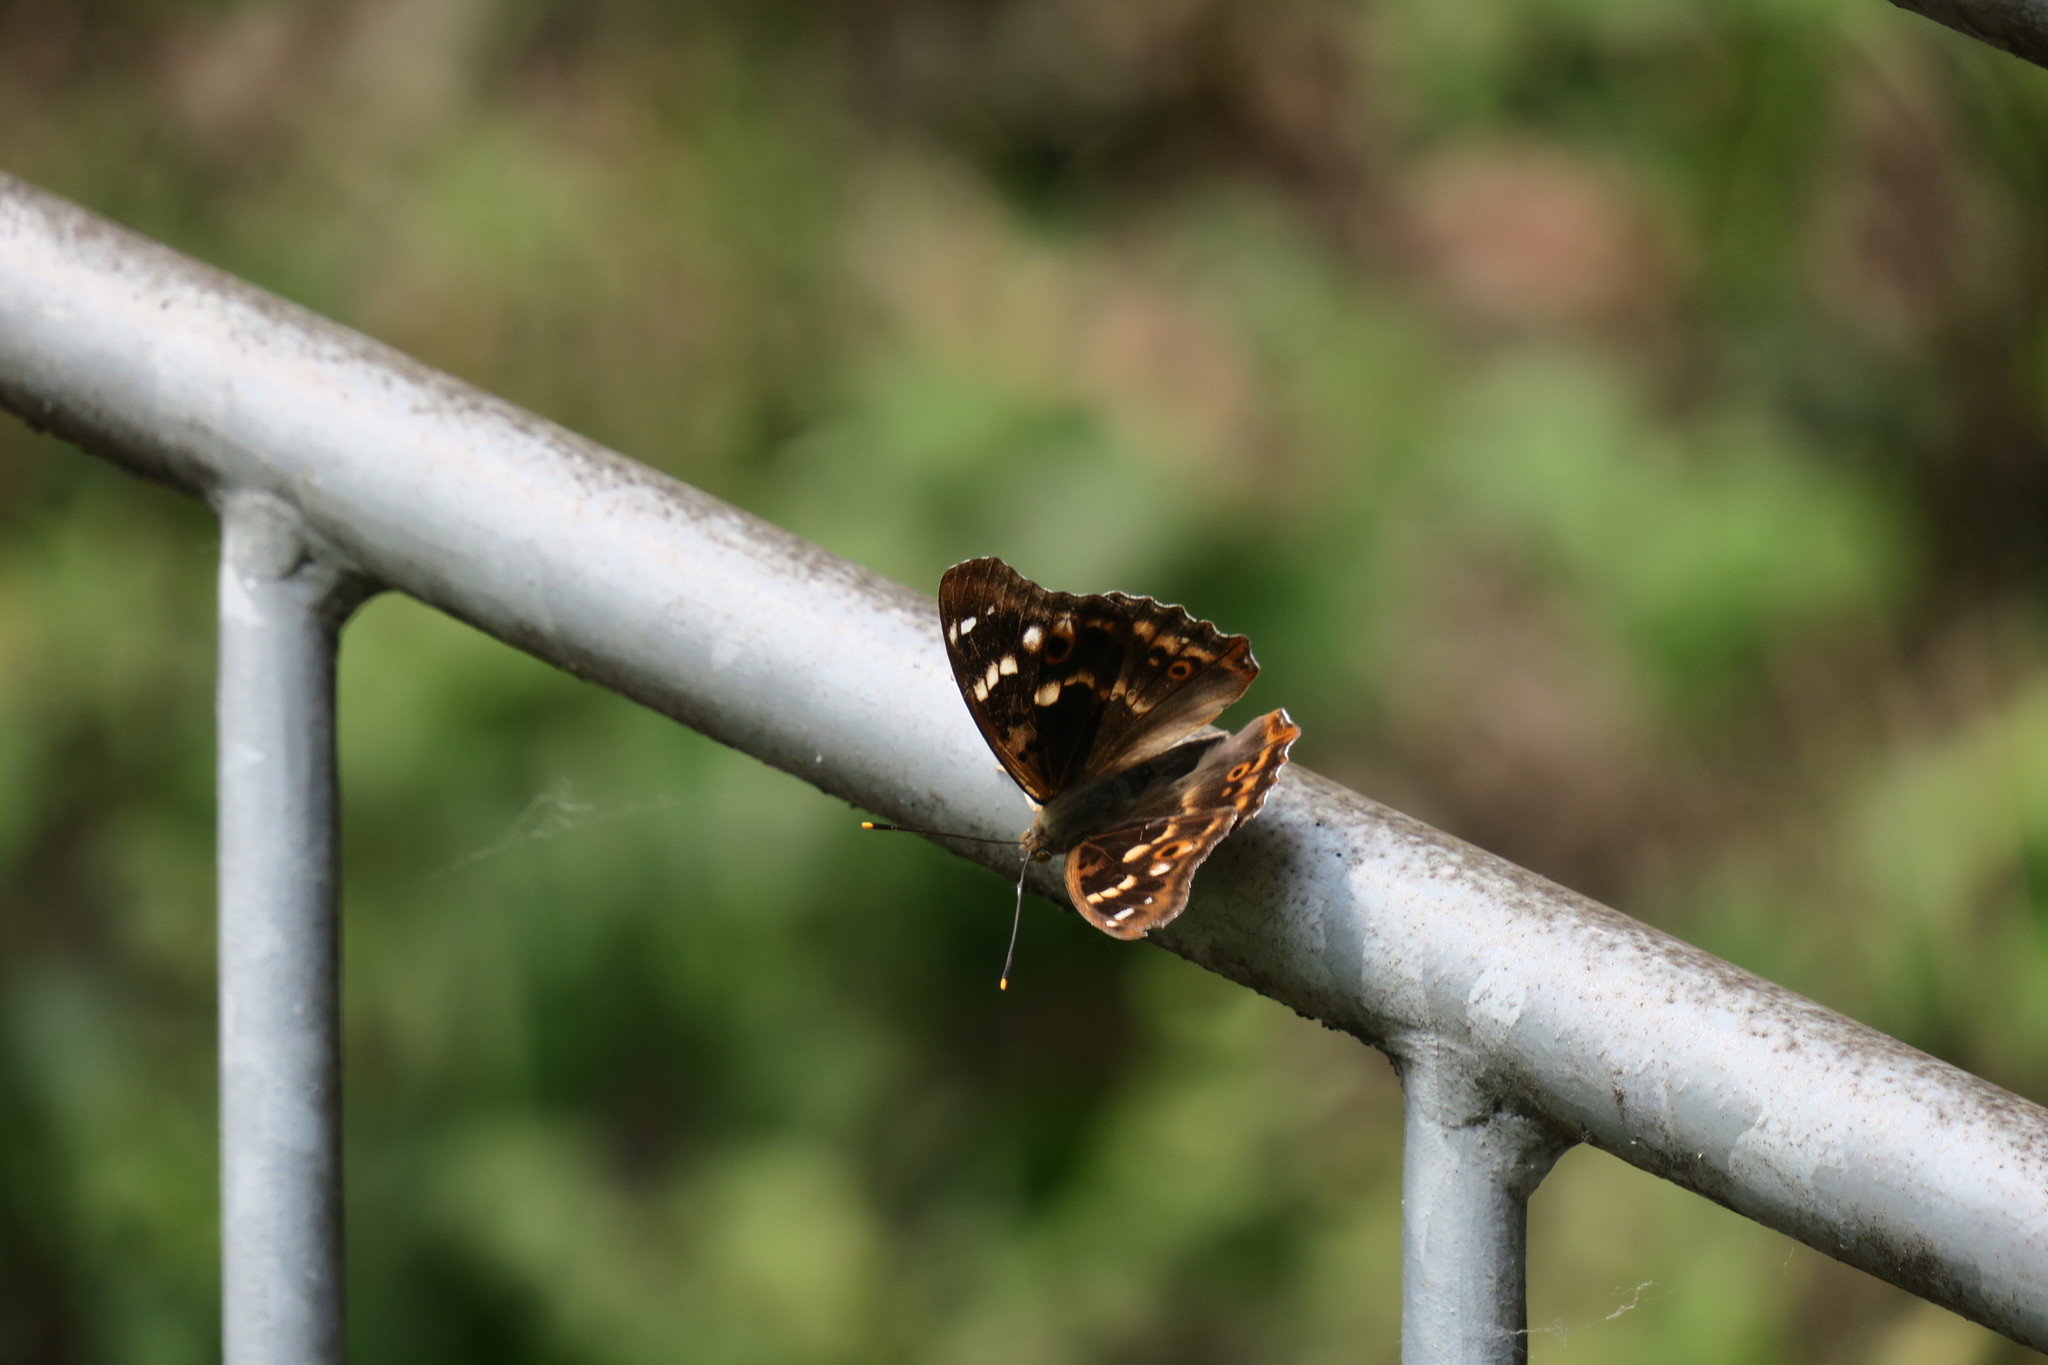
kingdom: Animalia
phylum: Arthropoda
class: Insecta
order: Lepidoptera
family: Nymphalidae
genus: Apatura
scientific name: Apatura ilia
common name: Lesser purple emperor
